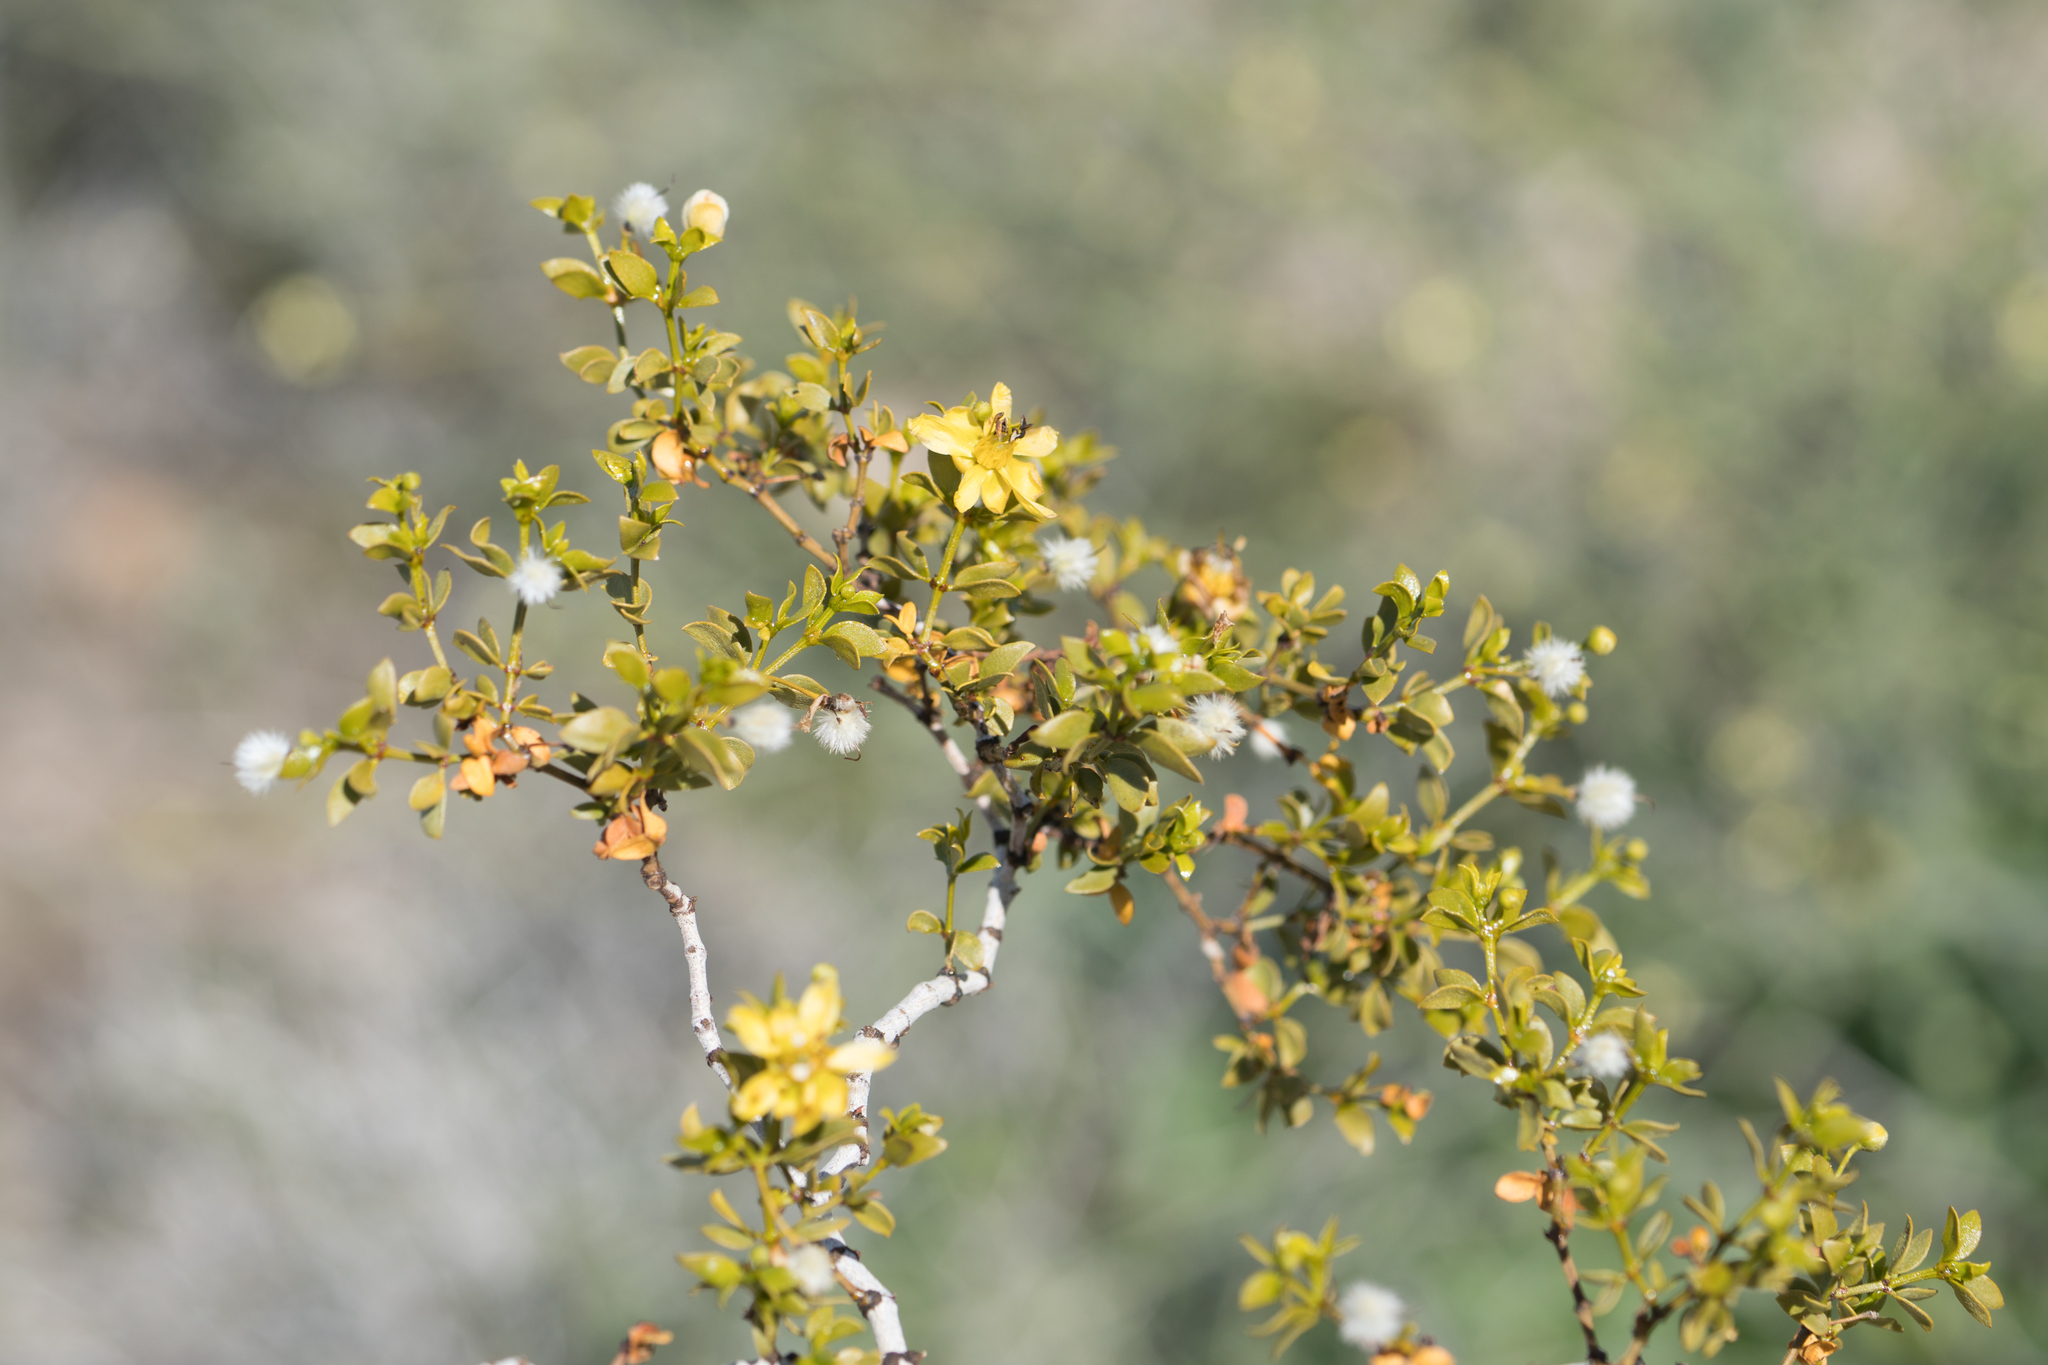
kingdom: Plantae
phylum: Tracheophyta
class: Magnoliopsida
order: Zygophyllales
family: Zygophyllaceae
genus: Larrea
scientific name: Larrea tridentata
